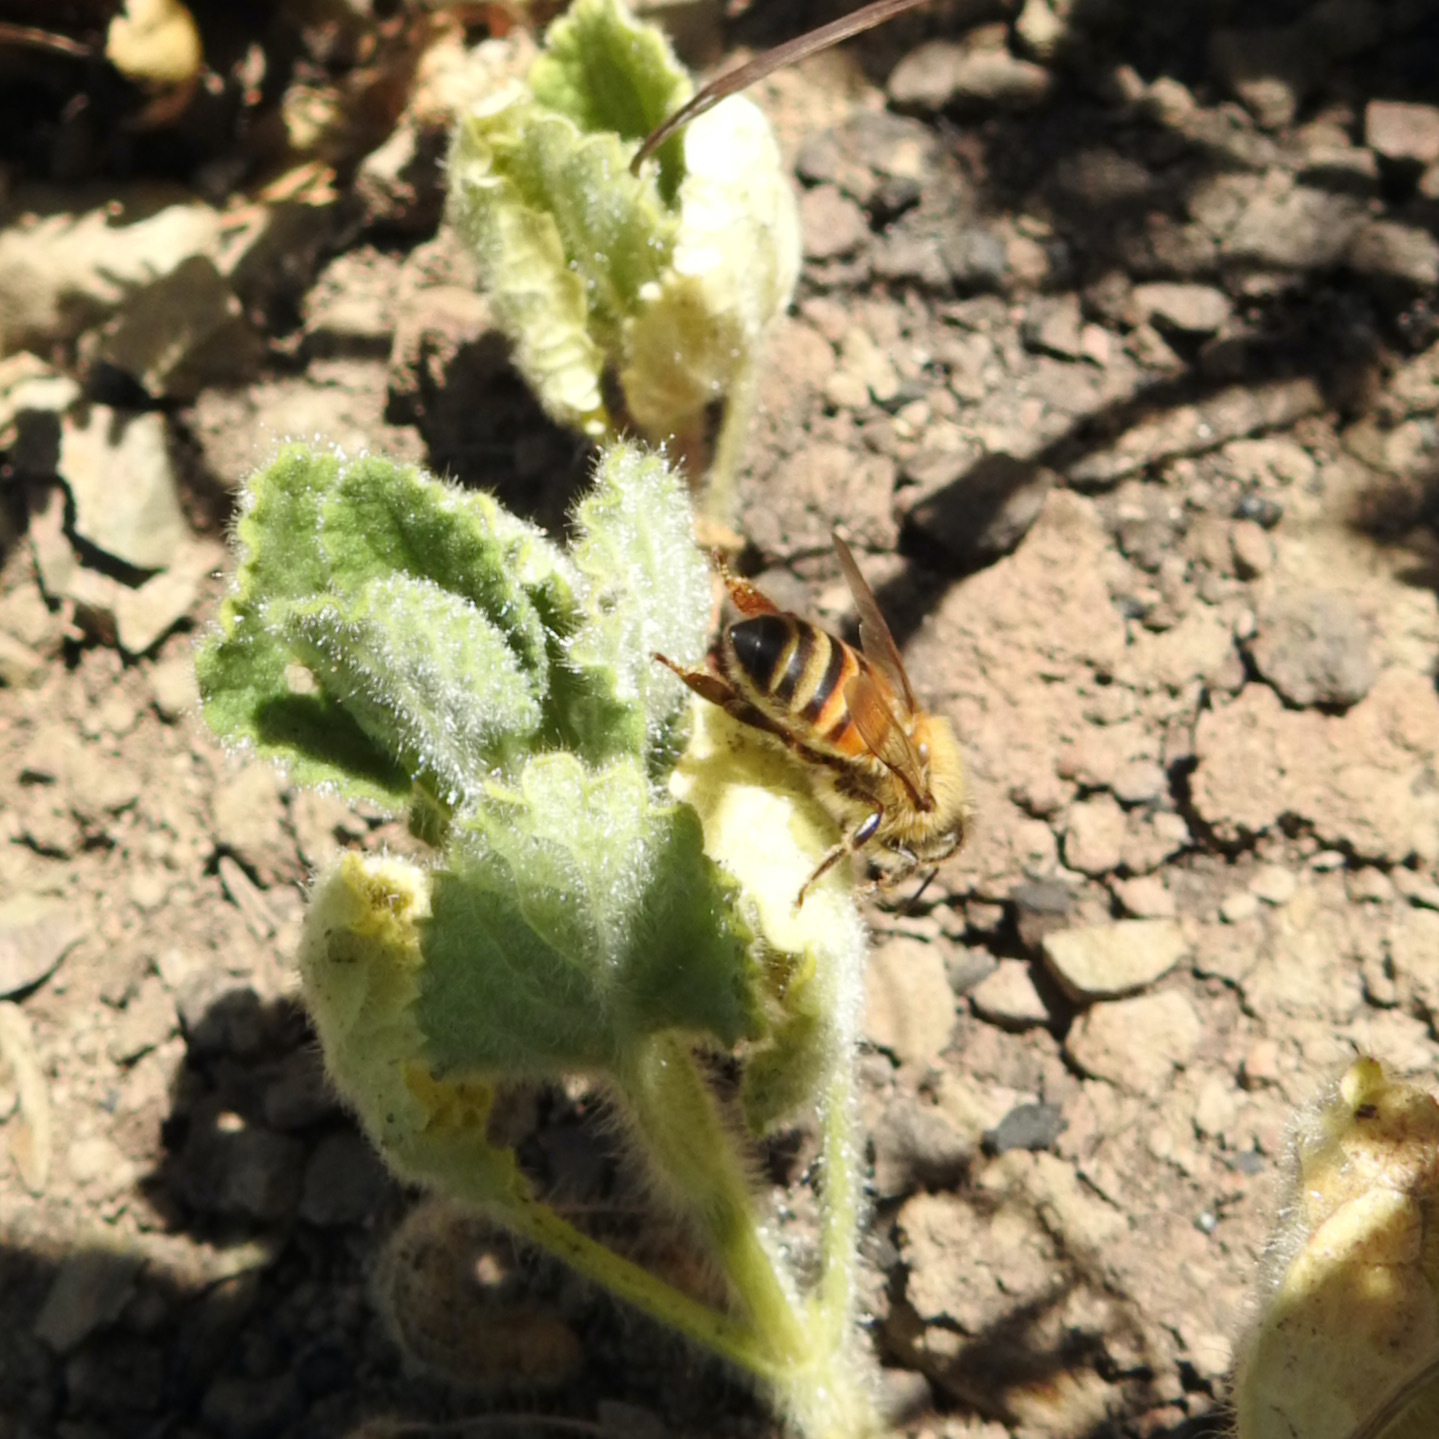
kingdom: Animalia
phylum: Arthropoda
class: Insecta
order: Hymenoptera
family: Apidae
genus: Apis
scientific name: Apis mellifera
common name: Honey bee
